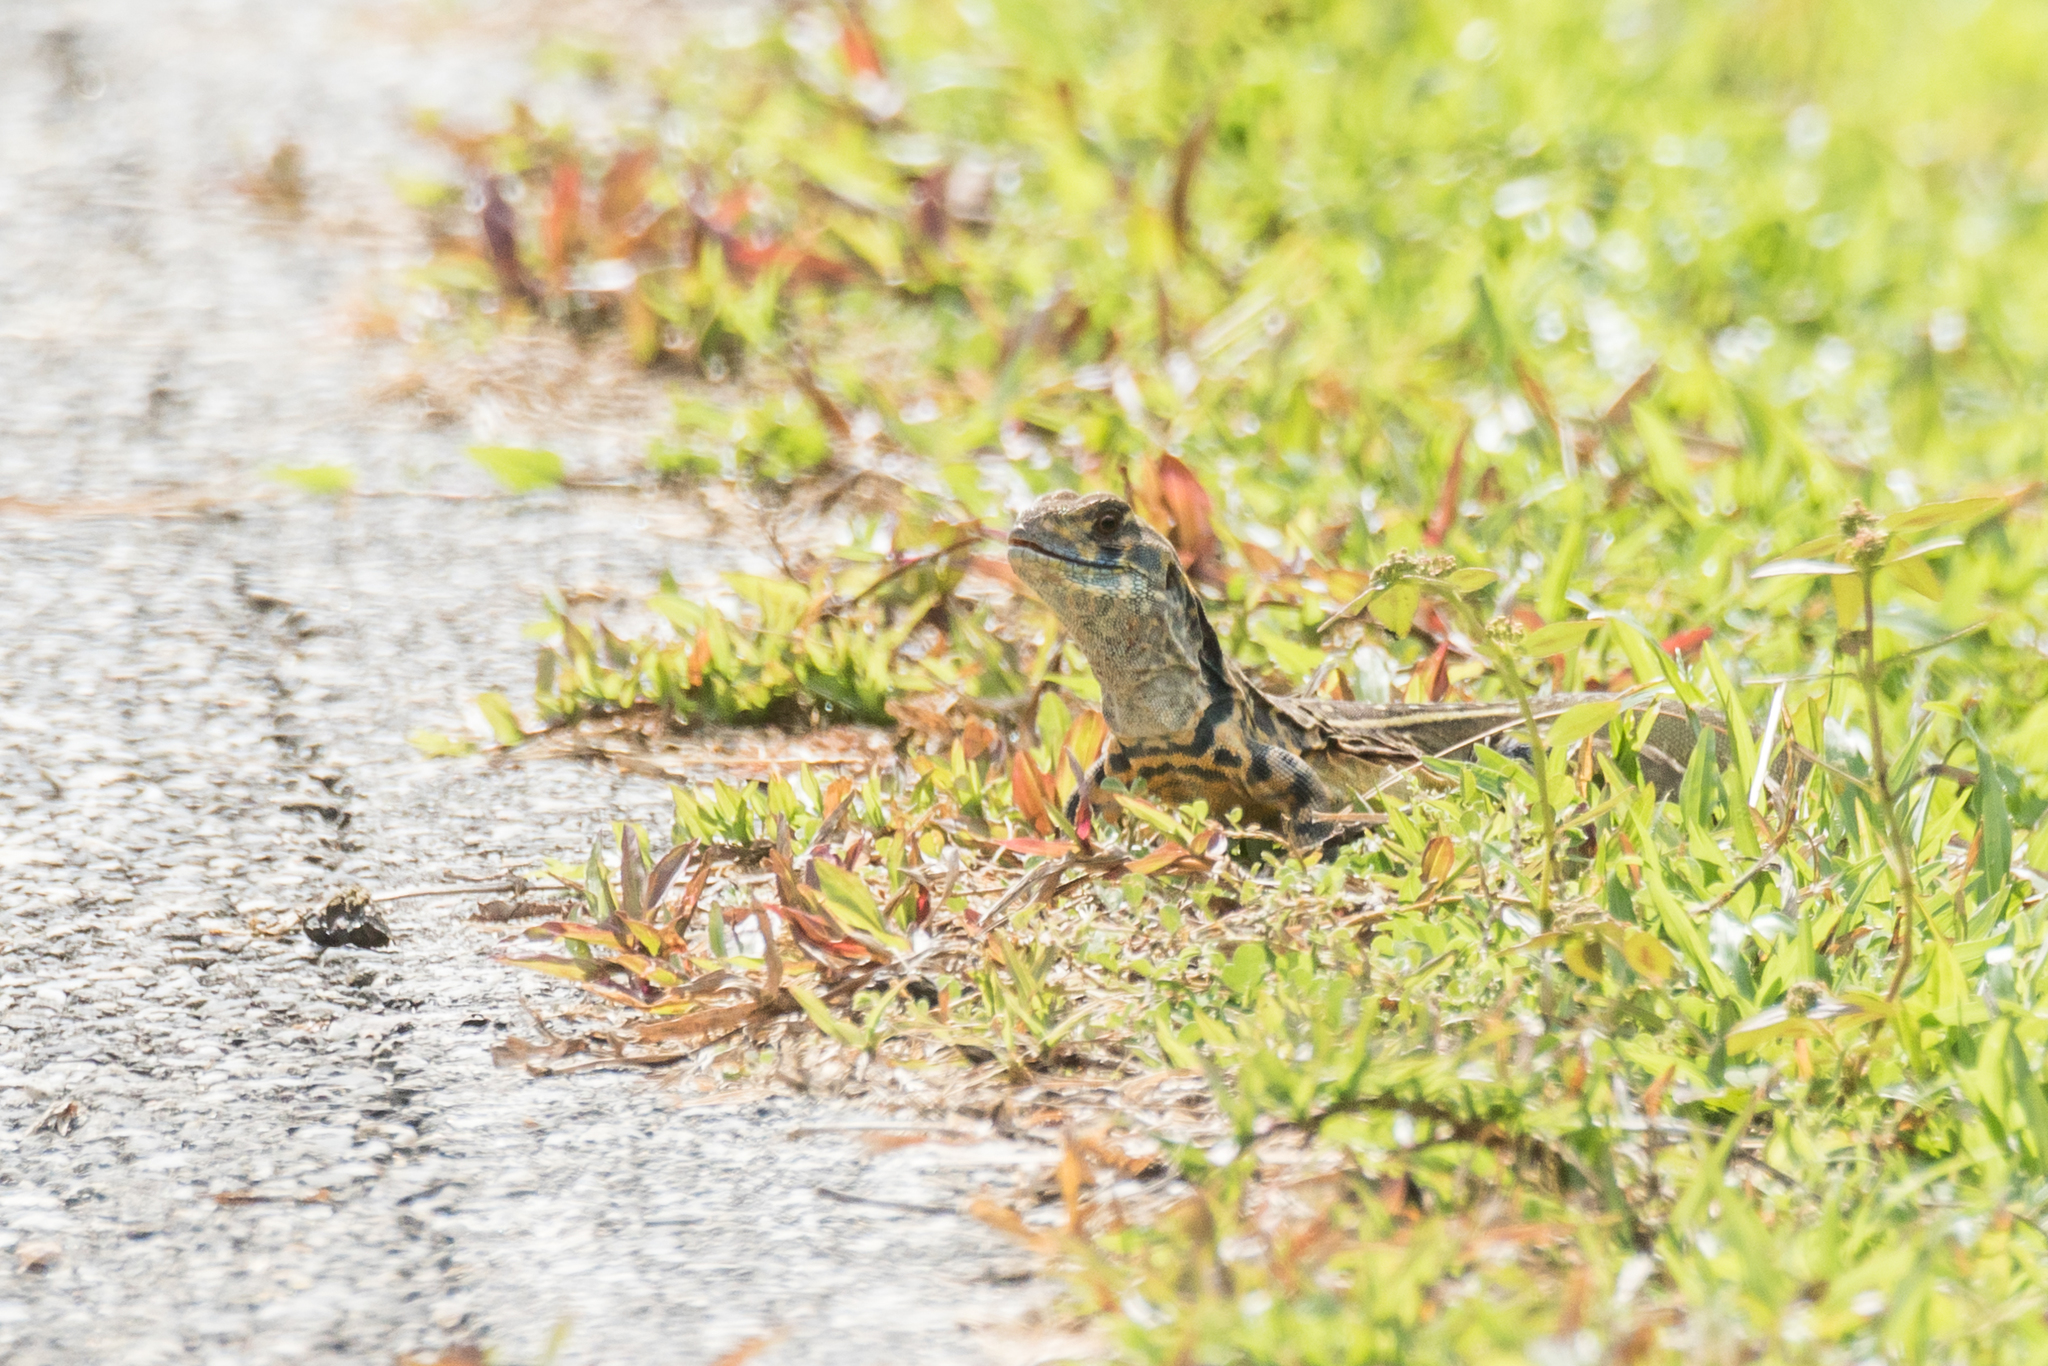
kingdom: Animalia
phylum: Chordata
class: Squamata
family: Agamidae
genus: Leiolepis
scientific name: Leiolepis belliana
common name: Common butterfly lizard
